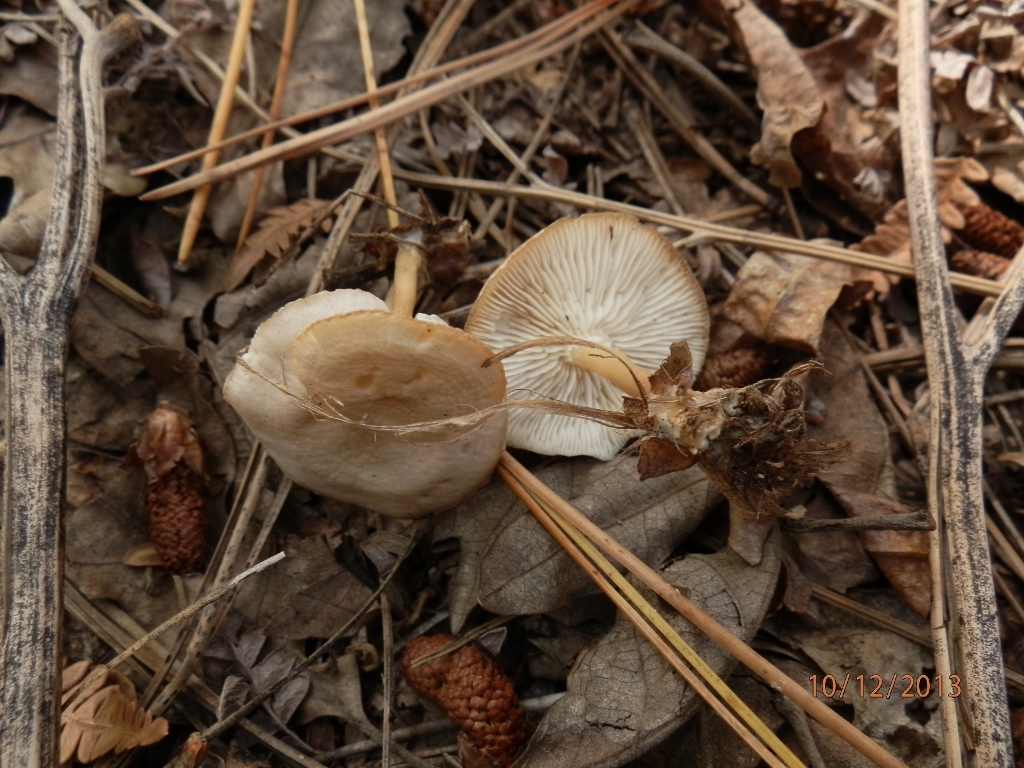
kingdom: Fungi
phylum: Basidiomycota
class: Agaricomycetes
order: Agaricales
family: Tricholomataceae
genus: Pseudoomphalina
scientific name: Pseudoomphalina compressipes
